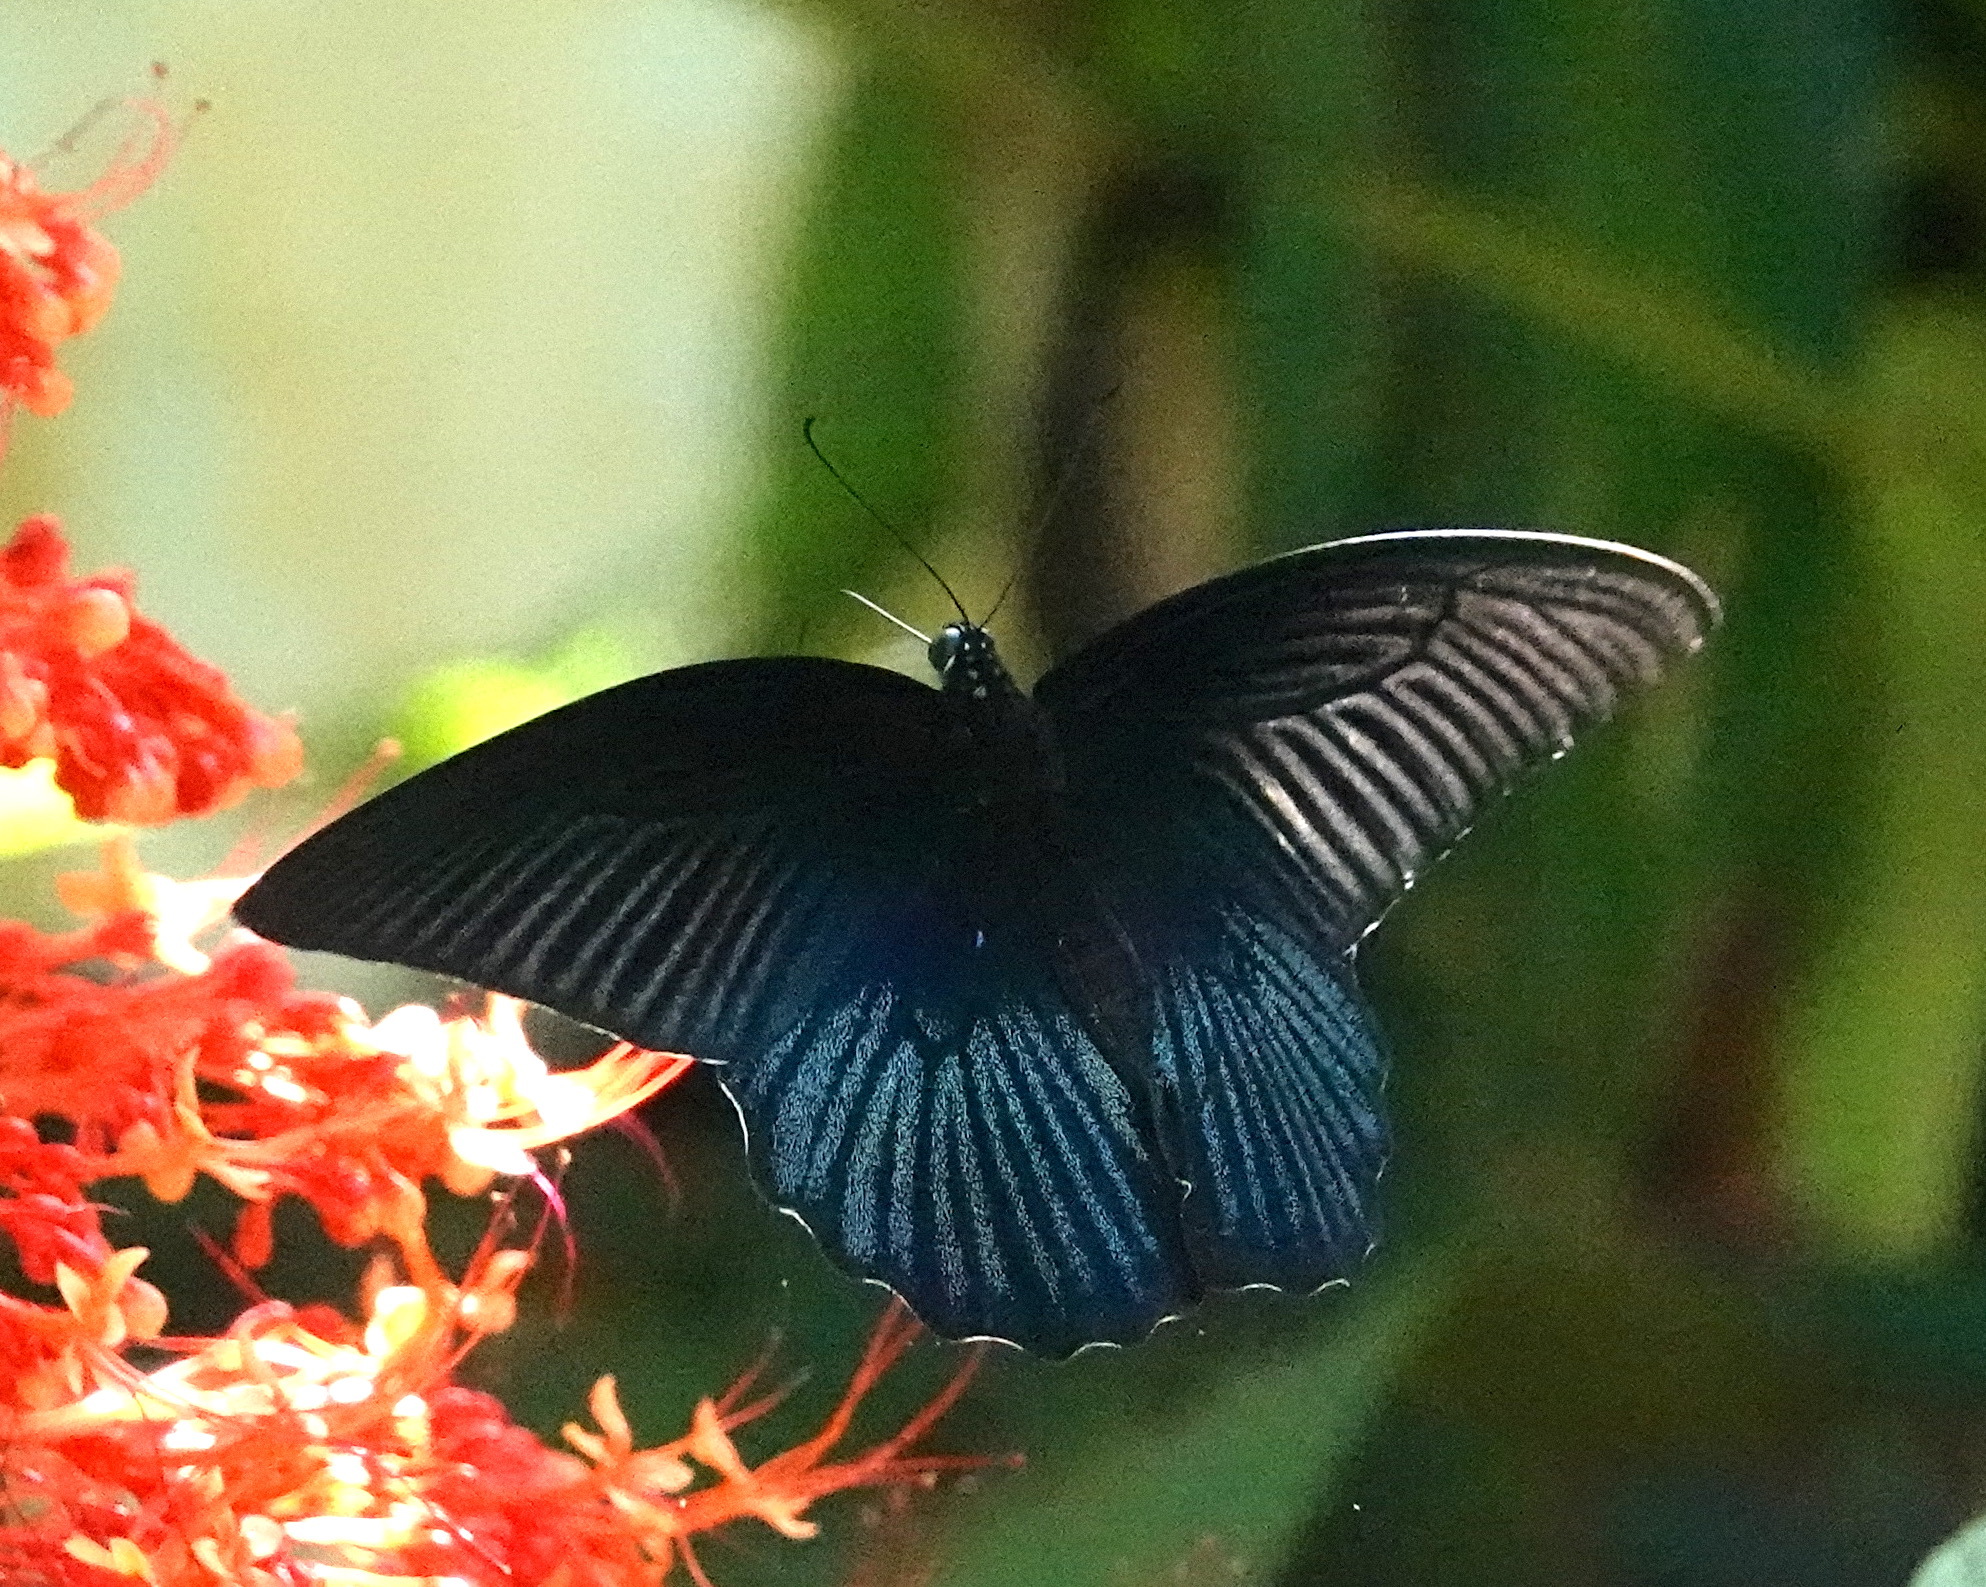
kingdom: Animalia
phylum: Arthropoda
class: Insecta
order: Lepidoptera
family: Papilionidae
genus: Papilio
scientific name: Papilio memnon
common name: Great mormon
